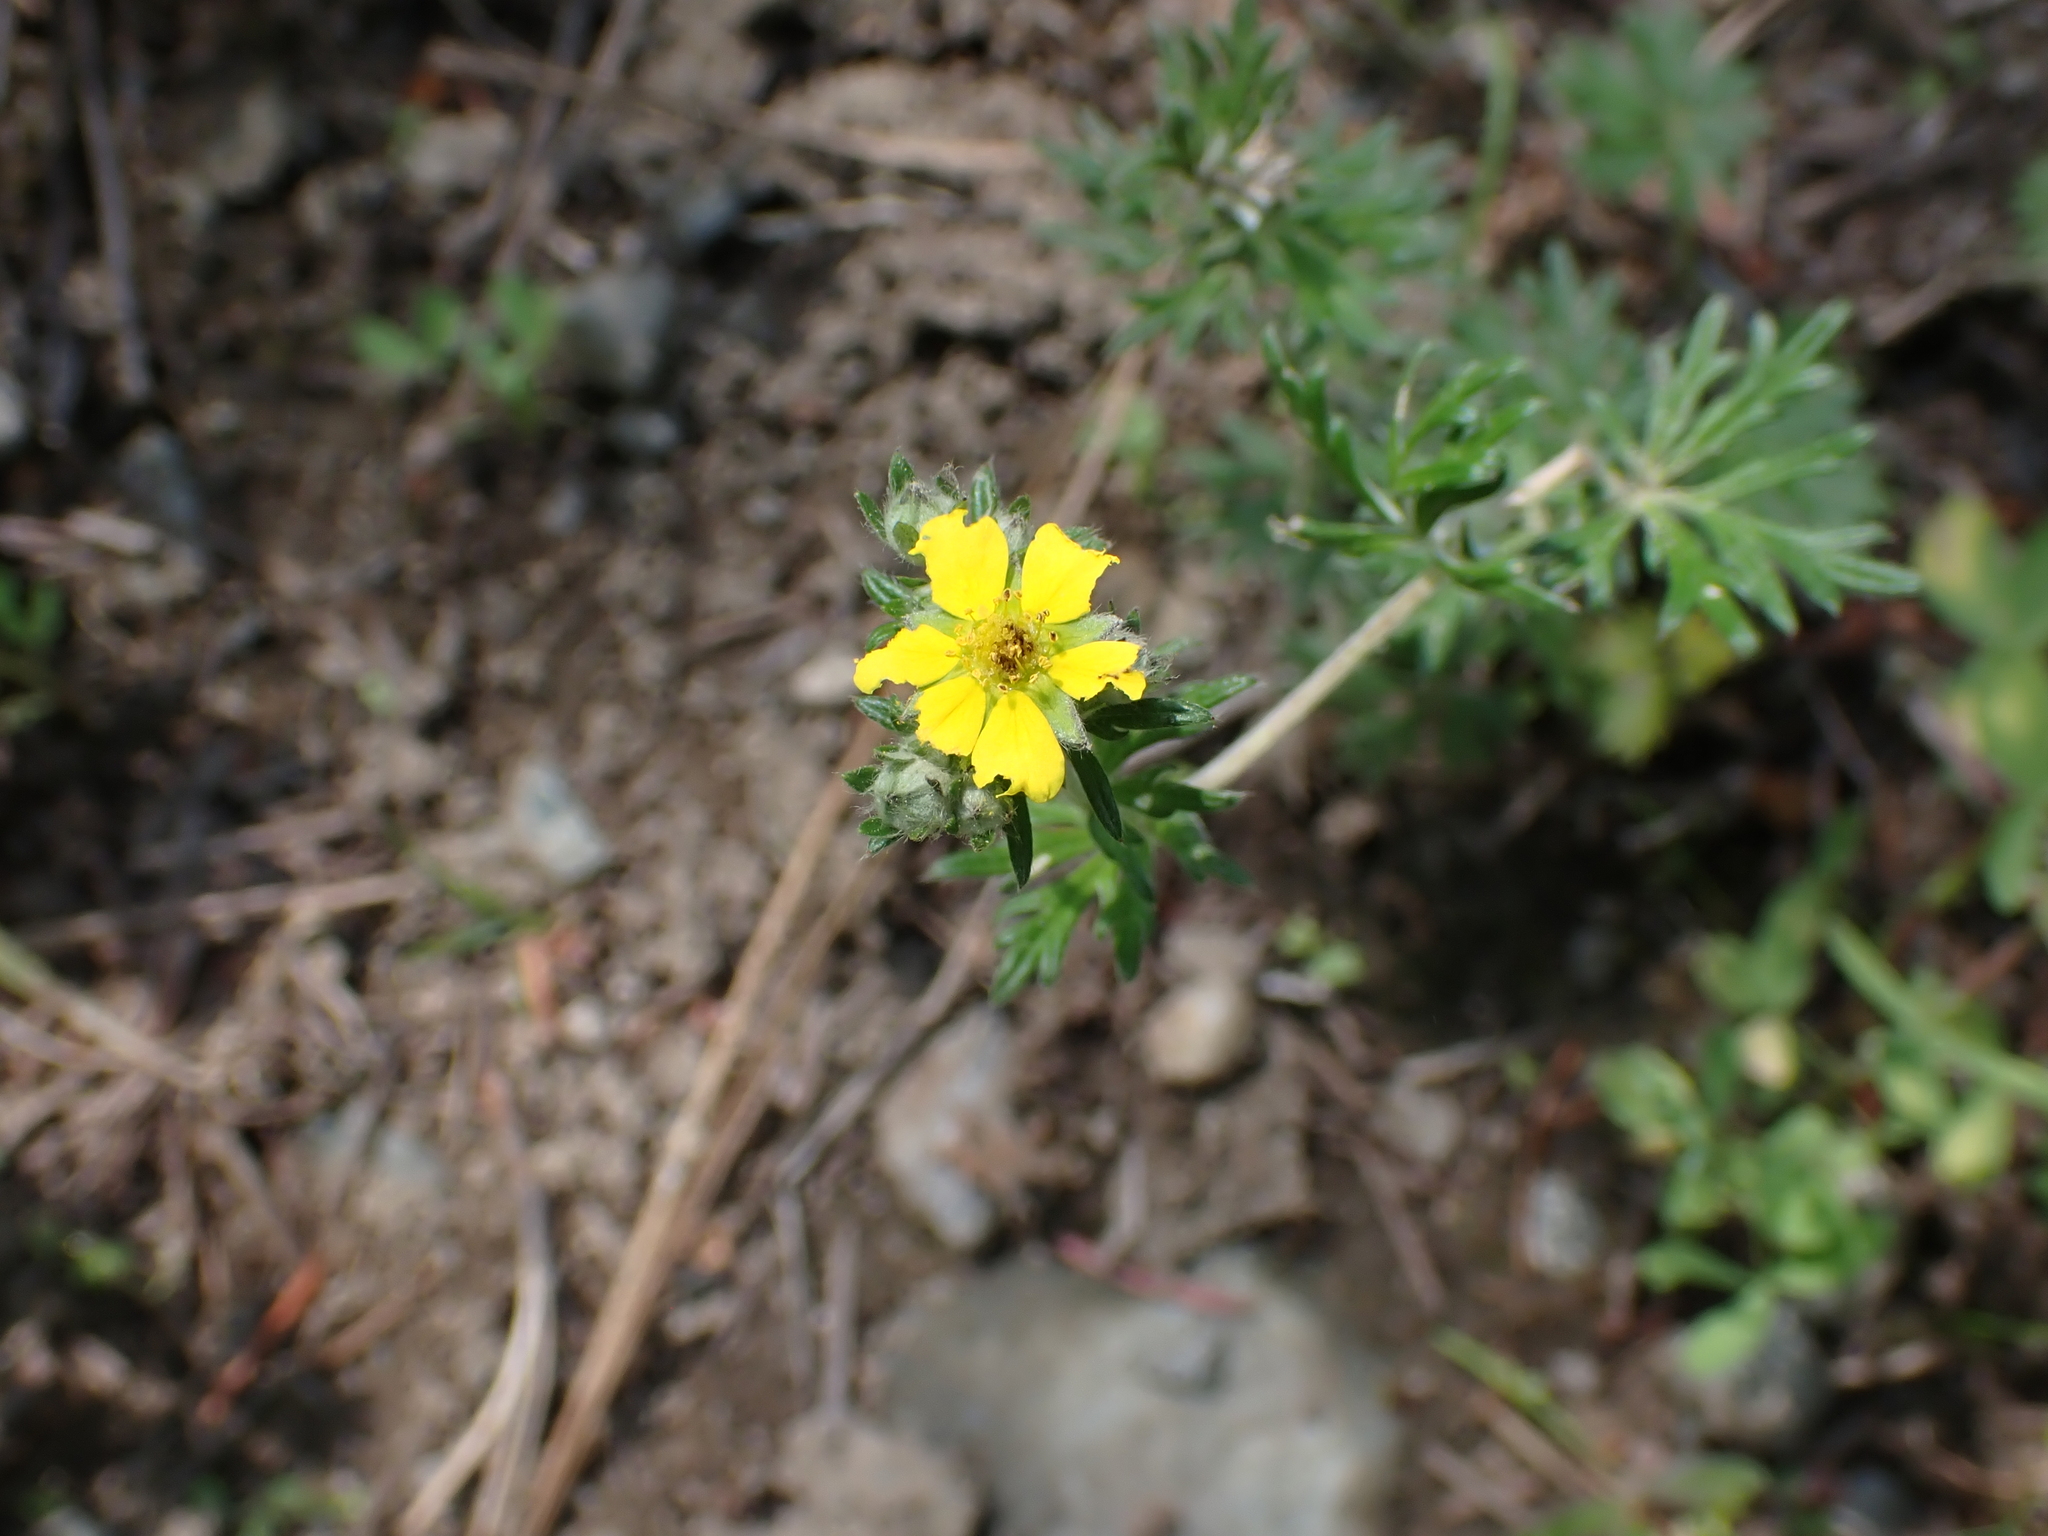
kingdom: Plantae
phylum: Tracheophyta
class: Magnoliopsida
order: Rosales
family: Rosaceae
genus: Potentilla
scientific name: Potentilla argentea
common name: Hoary cinquefoil
